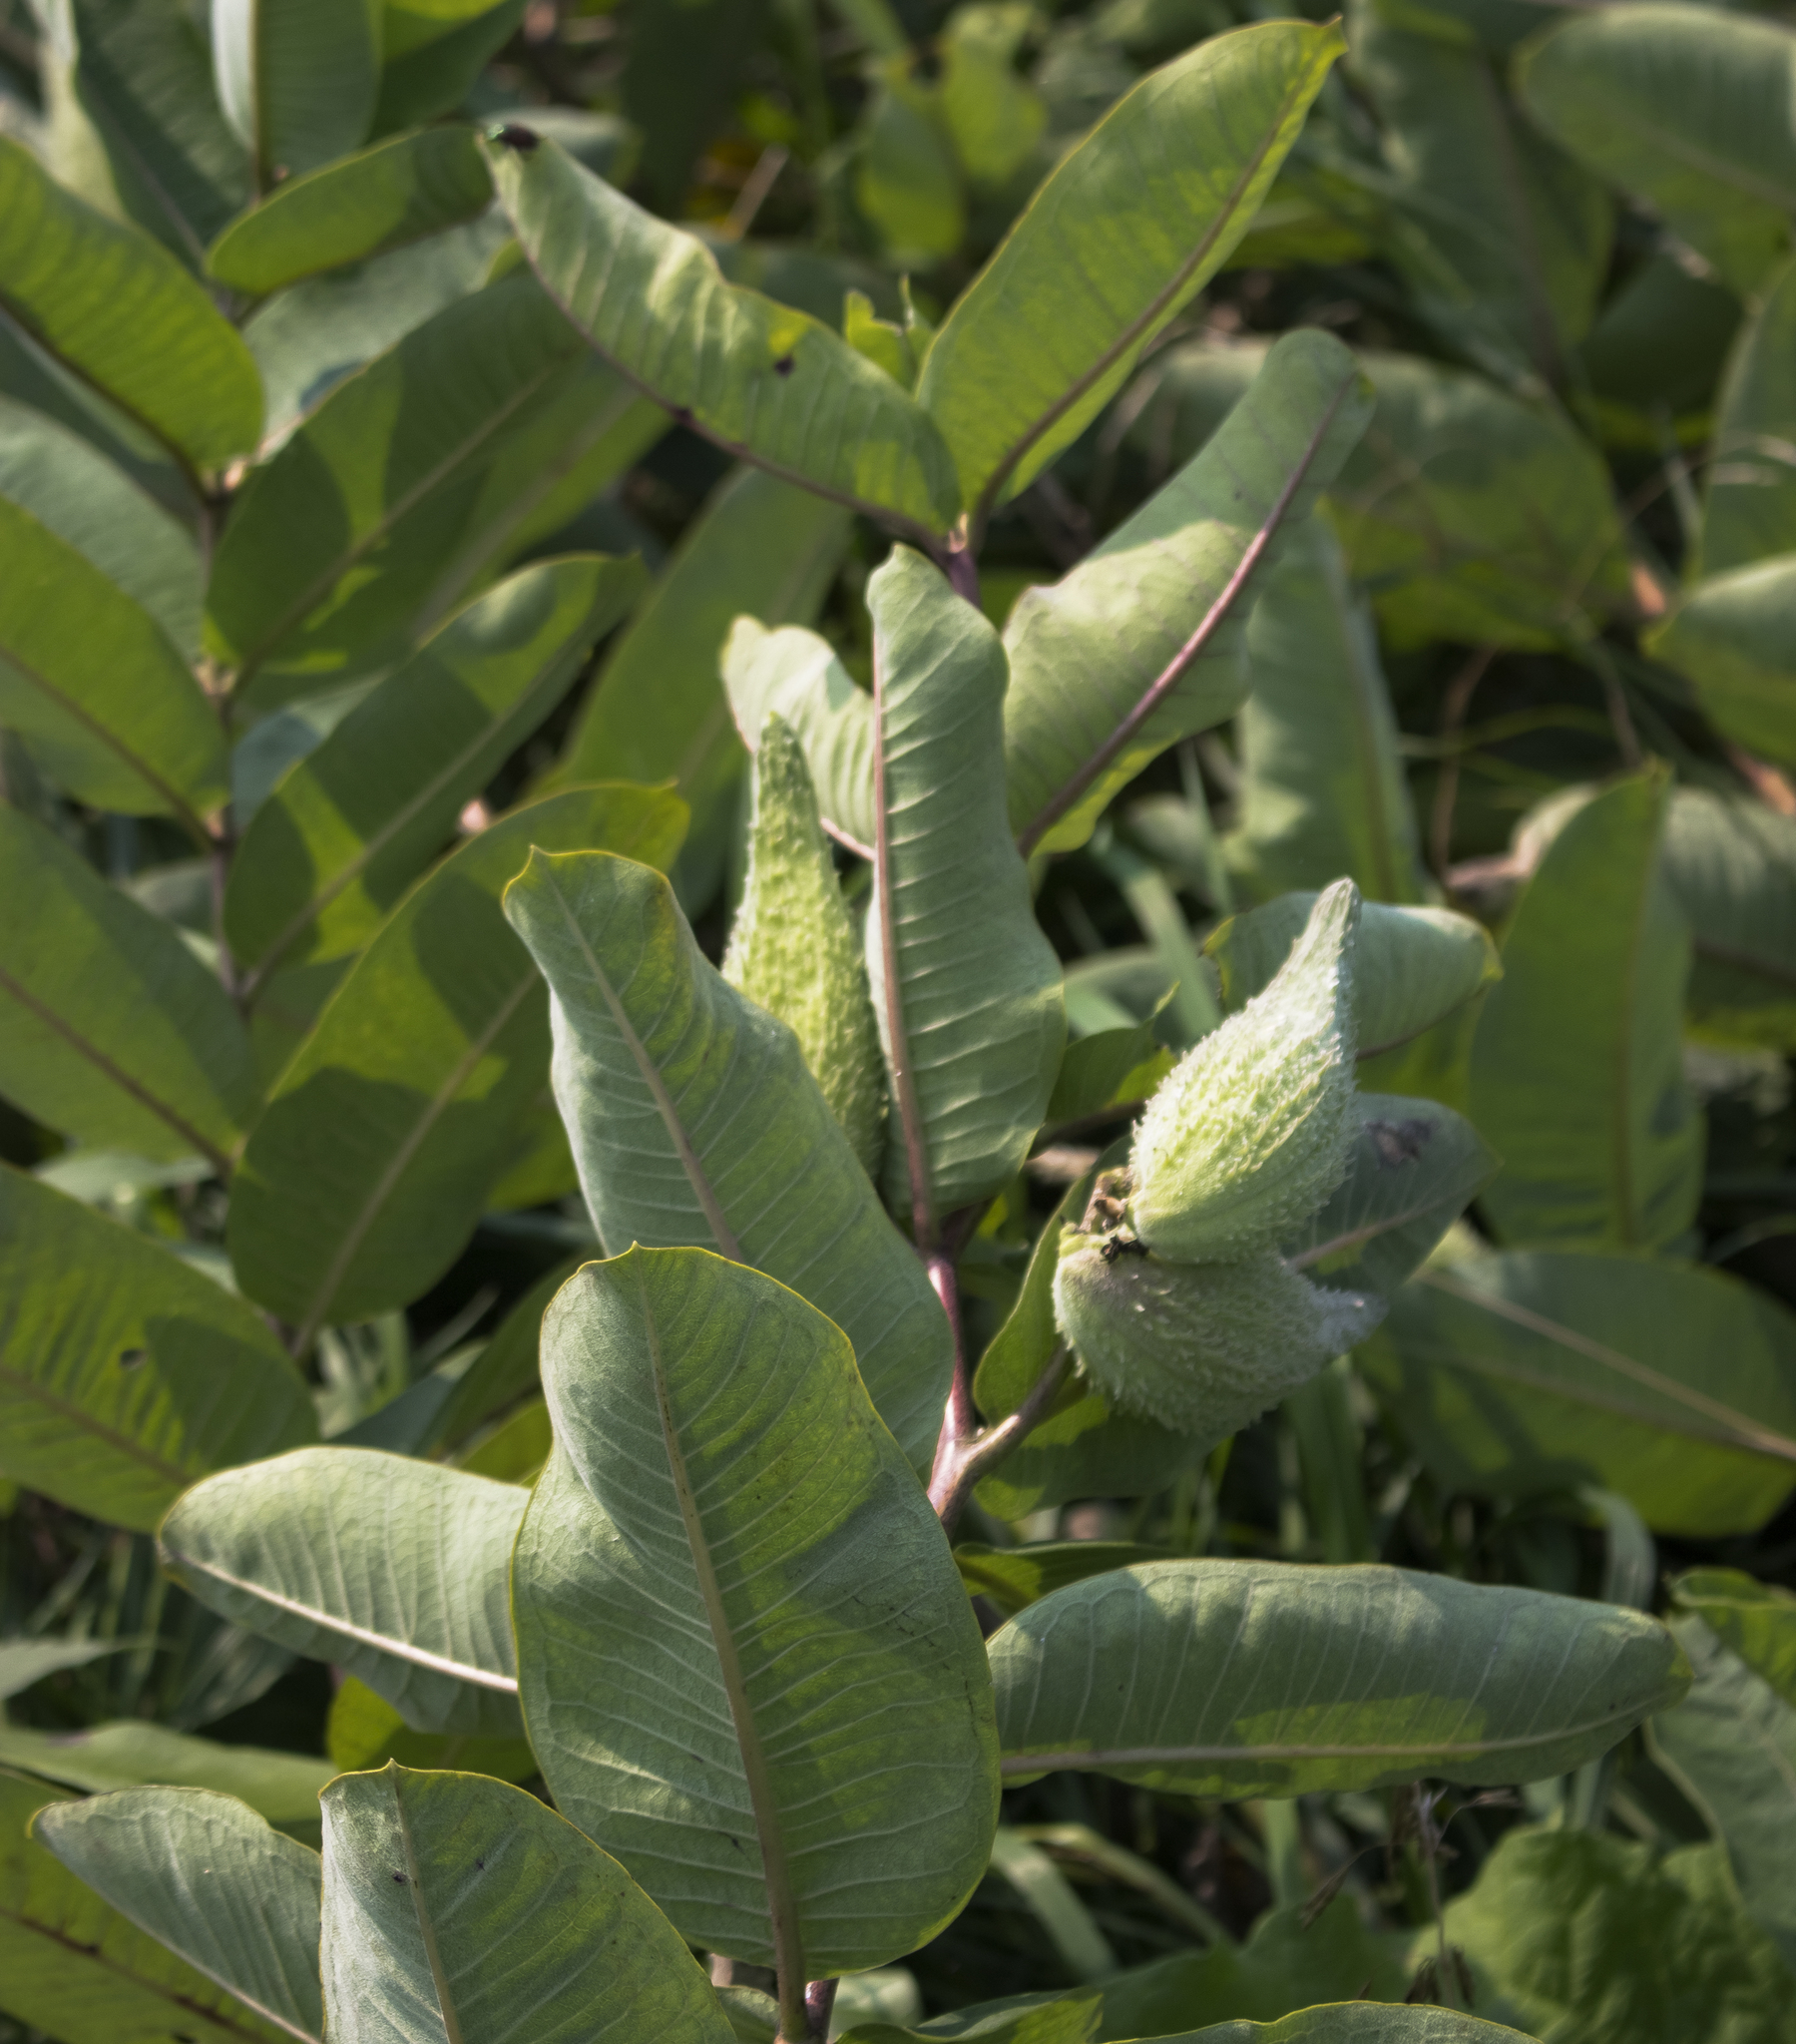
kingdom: Plantae
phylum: Tracheophyta
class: Magnoliopsida
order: Gentianales
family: Apocynaceae
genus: Asclepias
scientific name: Asclepias syriaca
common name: Common milkweed
